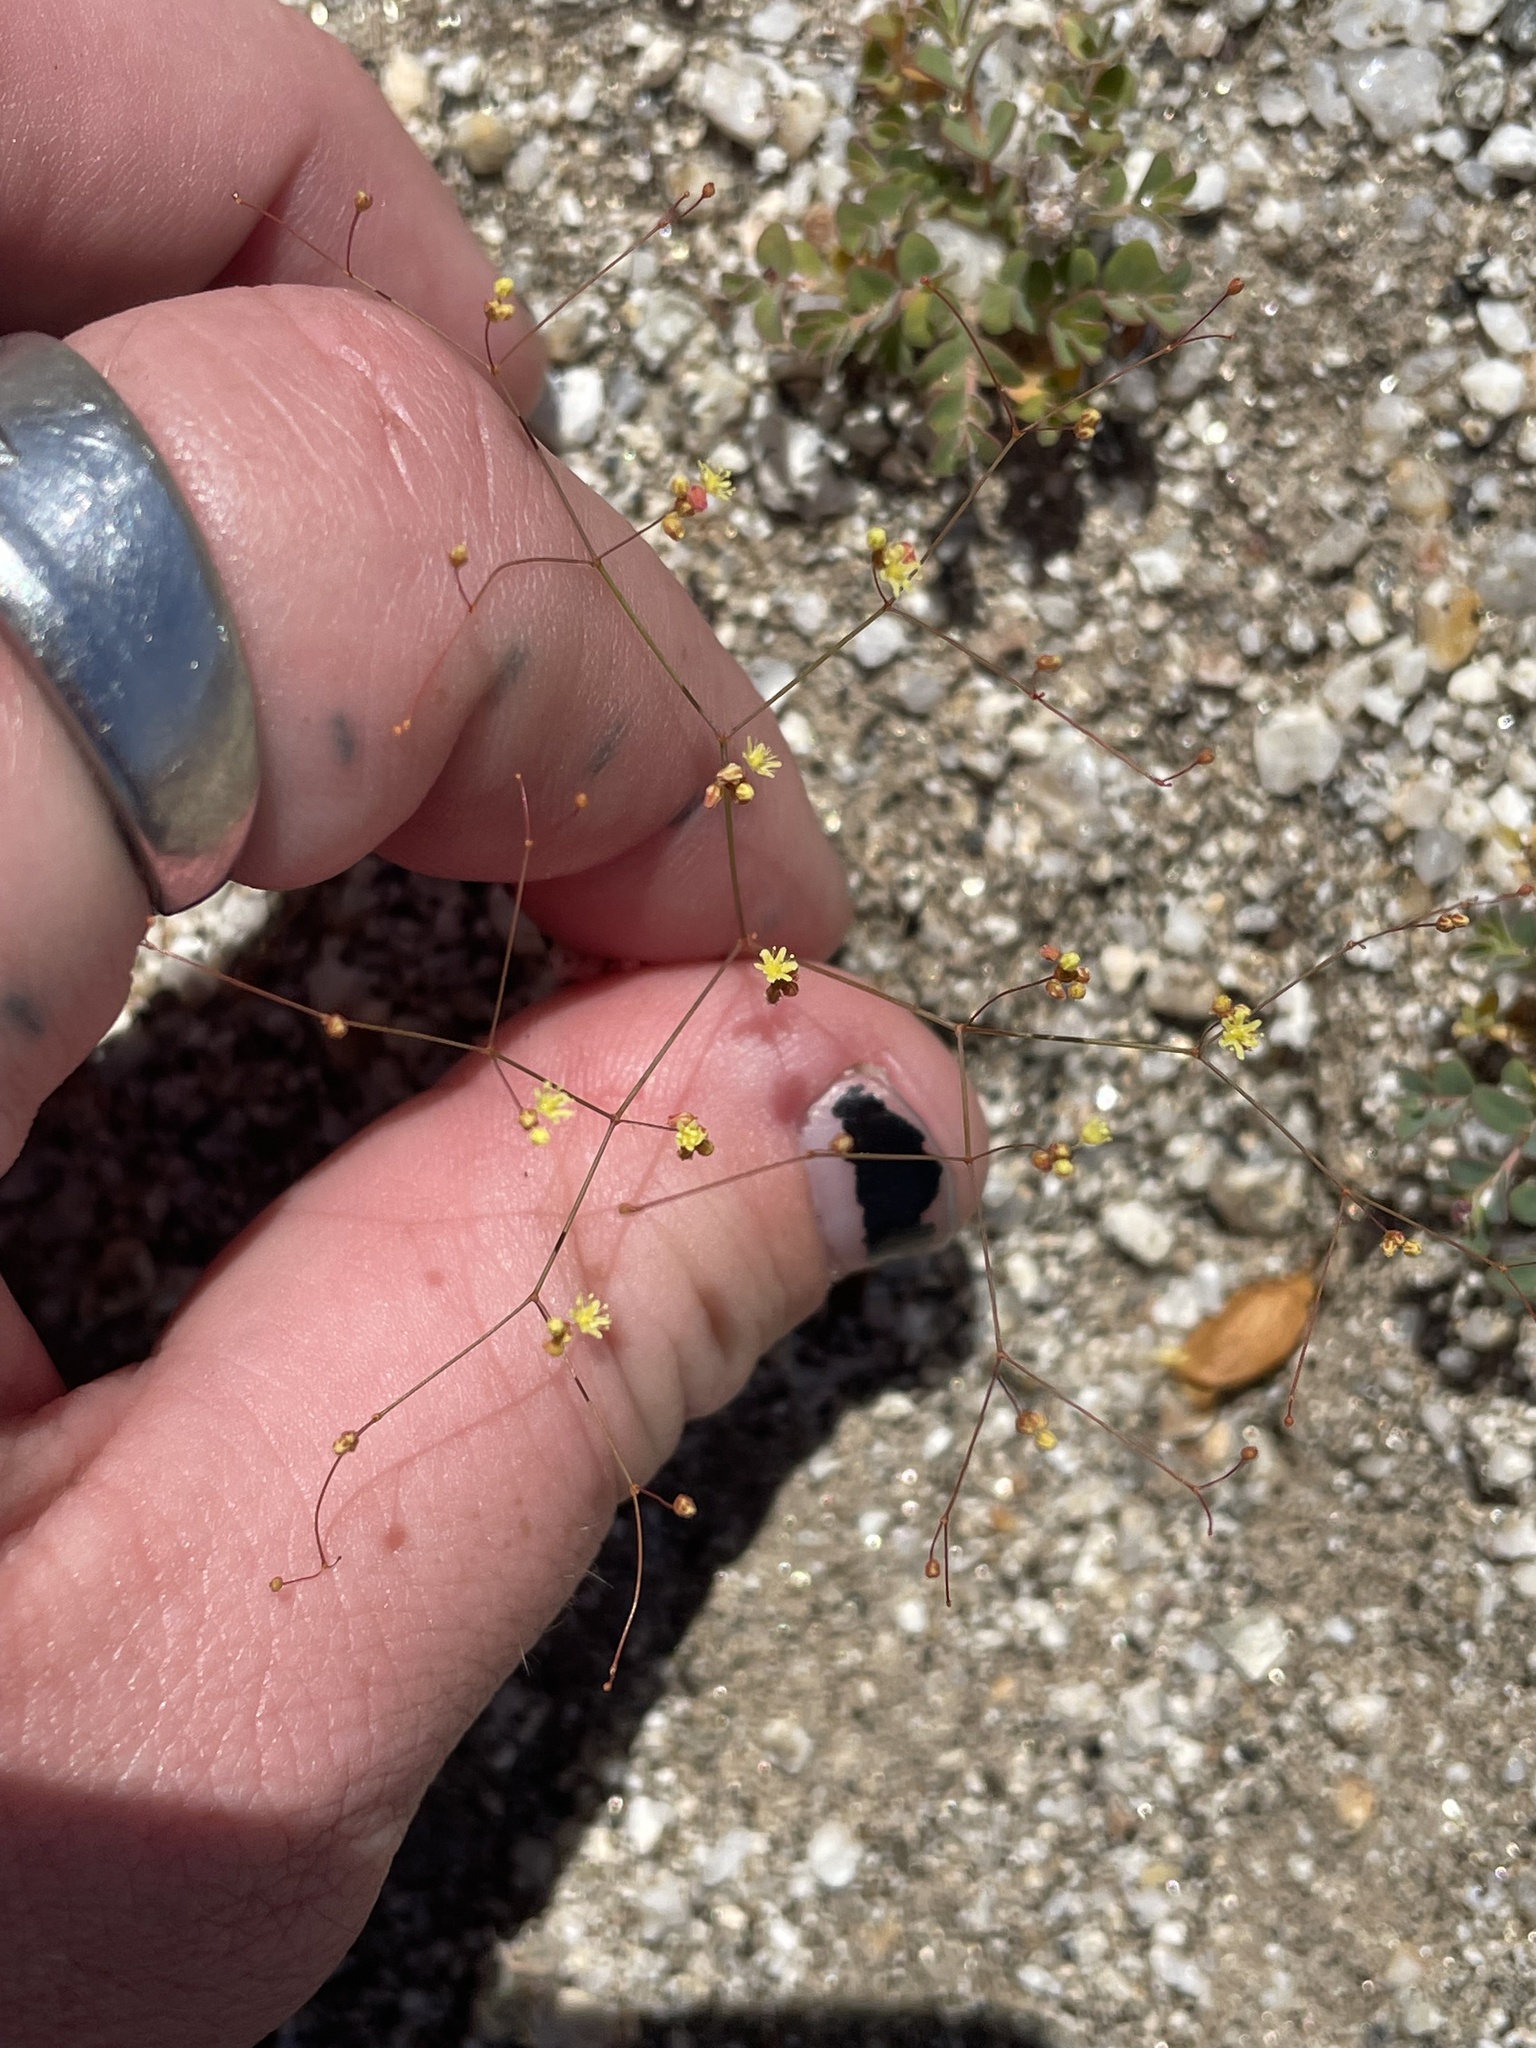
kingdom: Plantae
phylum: Tracheophyta
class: Magnoliopsida
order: Caryophyllales
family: Polygonaceae
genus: Eriogonum
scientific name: Eriogonum thomasii
